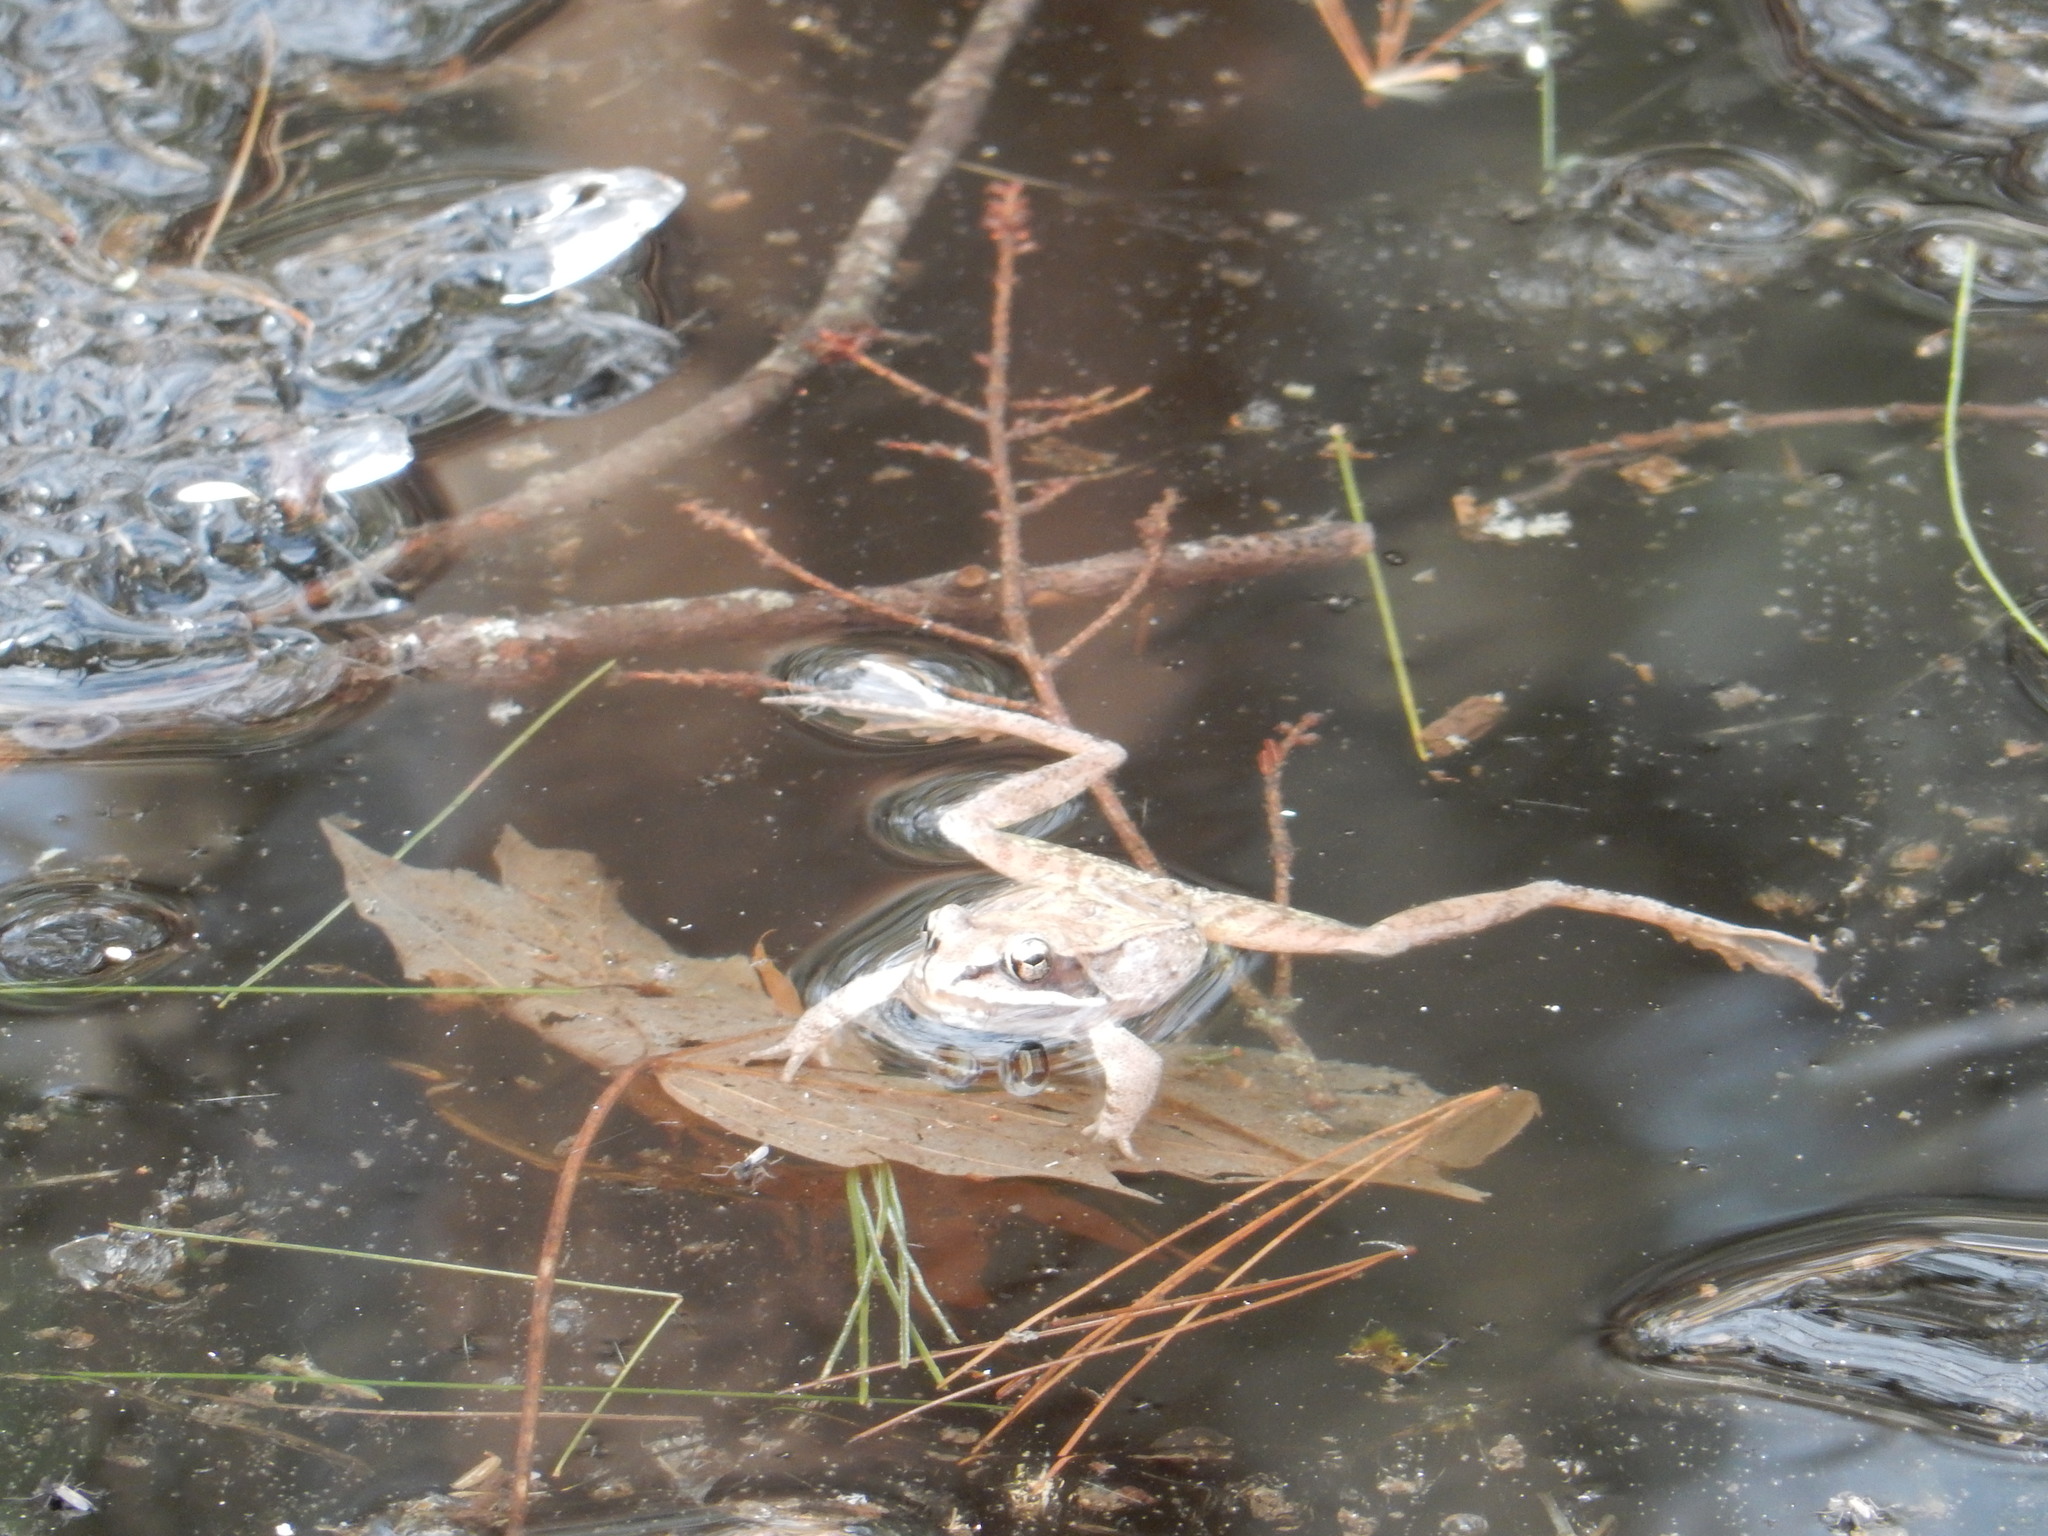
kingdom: Animalia
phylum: Chordata
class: Amphibia
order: Anura
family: Ranidae
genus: Lithobates
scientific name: Lithobates sylvaticus
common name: Wood frog
